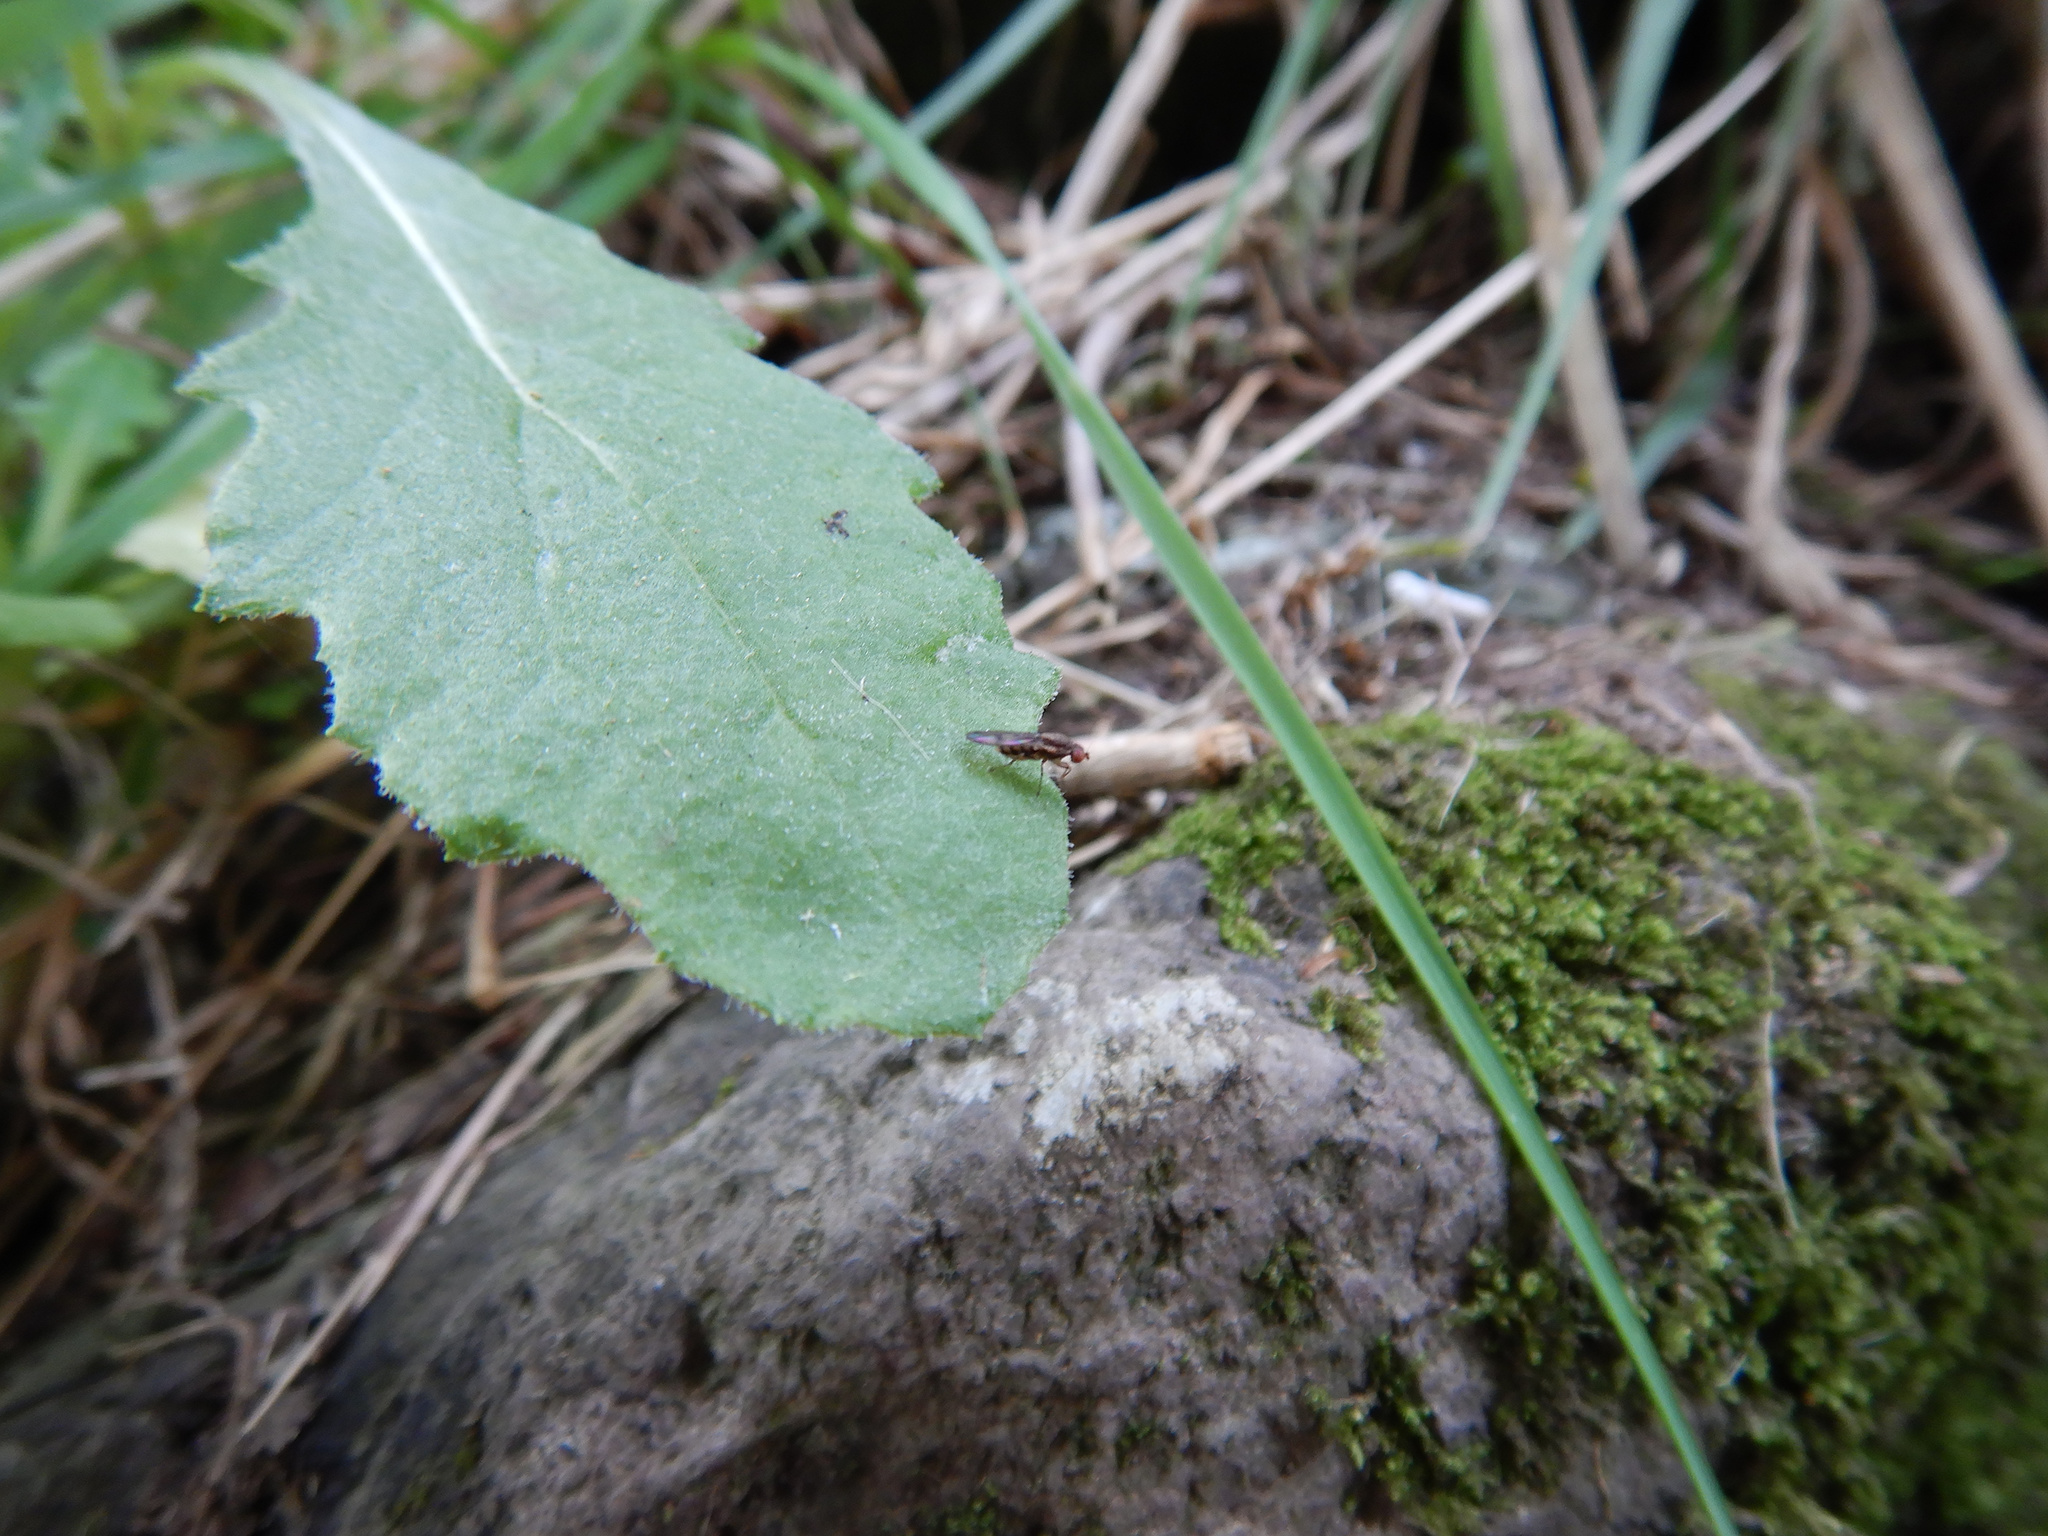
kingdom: Animalia
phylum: Arthropoda
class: Insecta
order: Diptera
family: Heleomyzidae
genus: Fenwickia
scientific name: Fenwickia hirsuta
